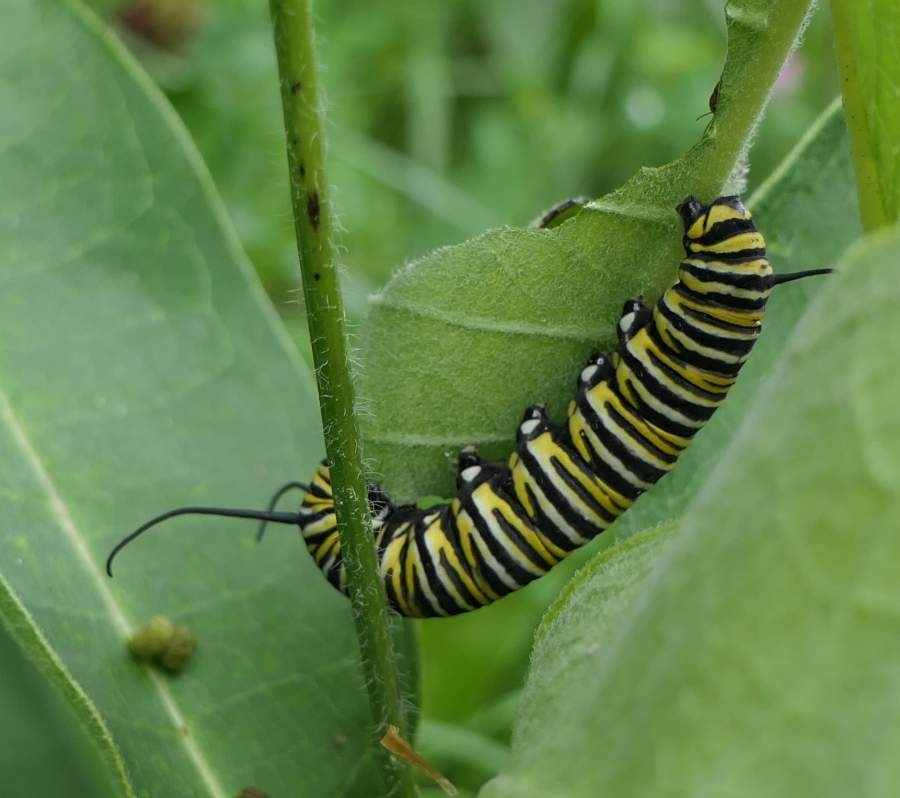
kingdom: Animalia
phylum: Arthropoda
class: Insecta
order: Lepidoptera
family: Nymphalidae
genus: Danaus
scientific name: Danaus plexippus
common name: Monarch
